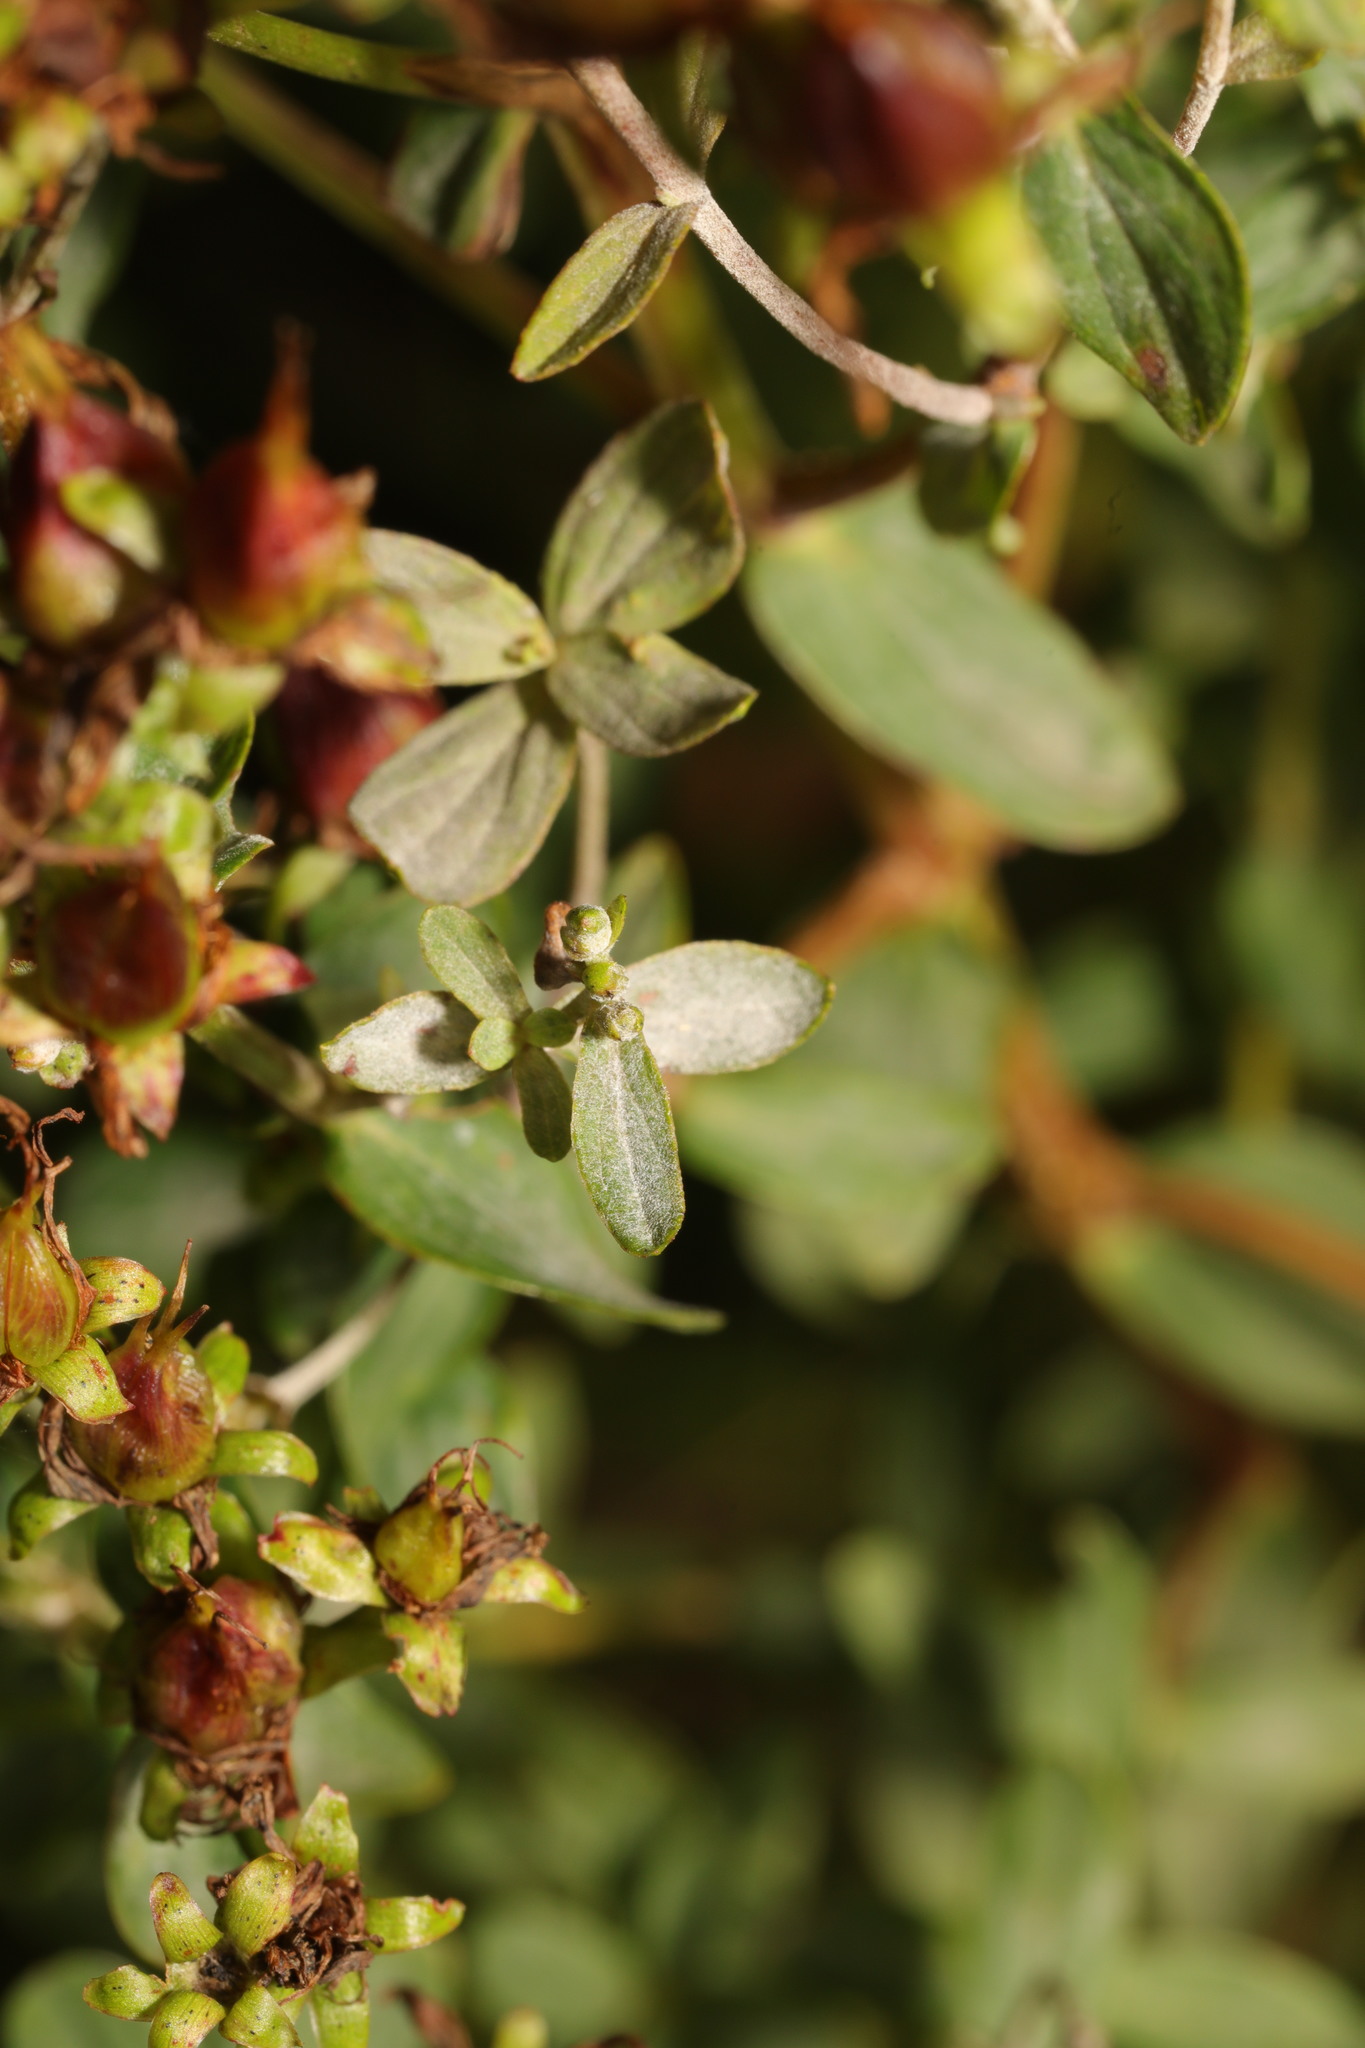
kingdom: Fungi
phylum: Ascomycota
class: Leotiomycetes
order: Helotiales
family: Erysiphaceae
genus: Erysiphe
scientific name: Erysiphe hyperici
